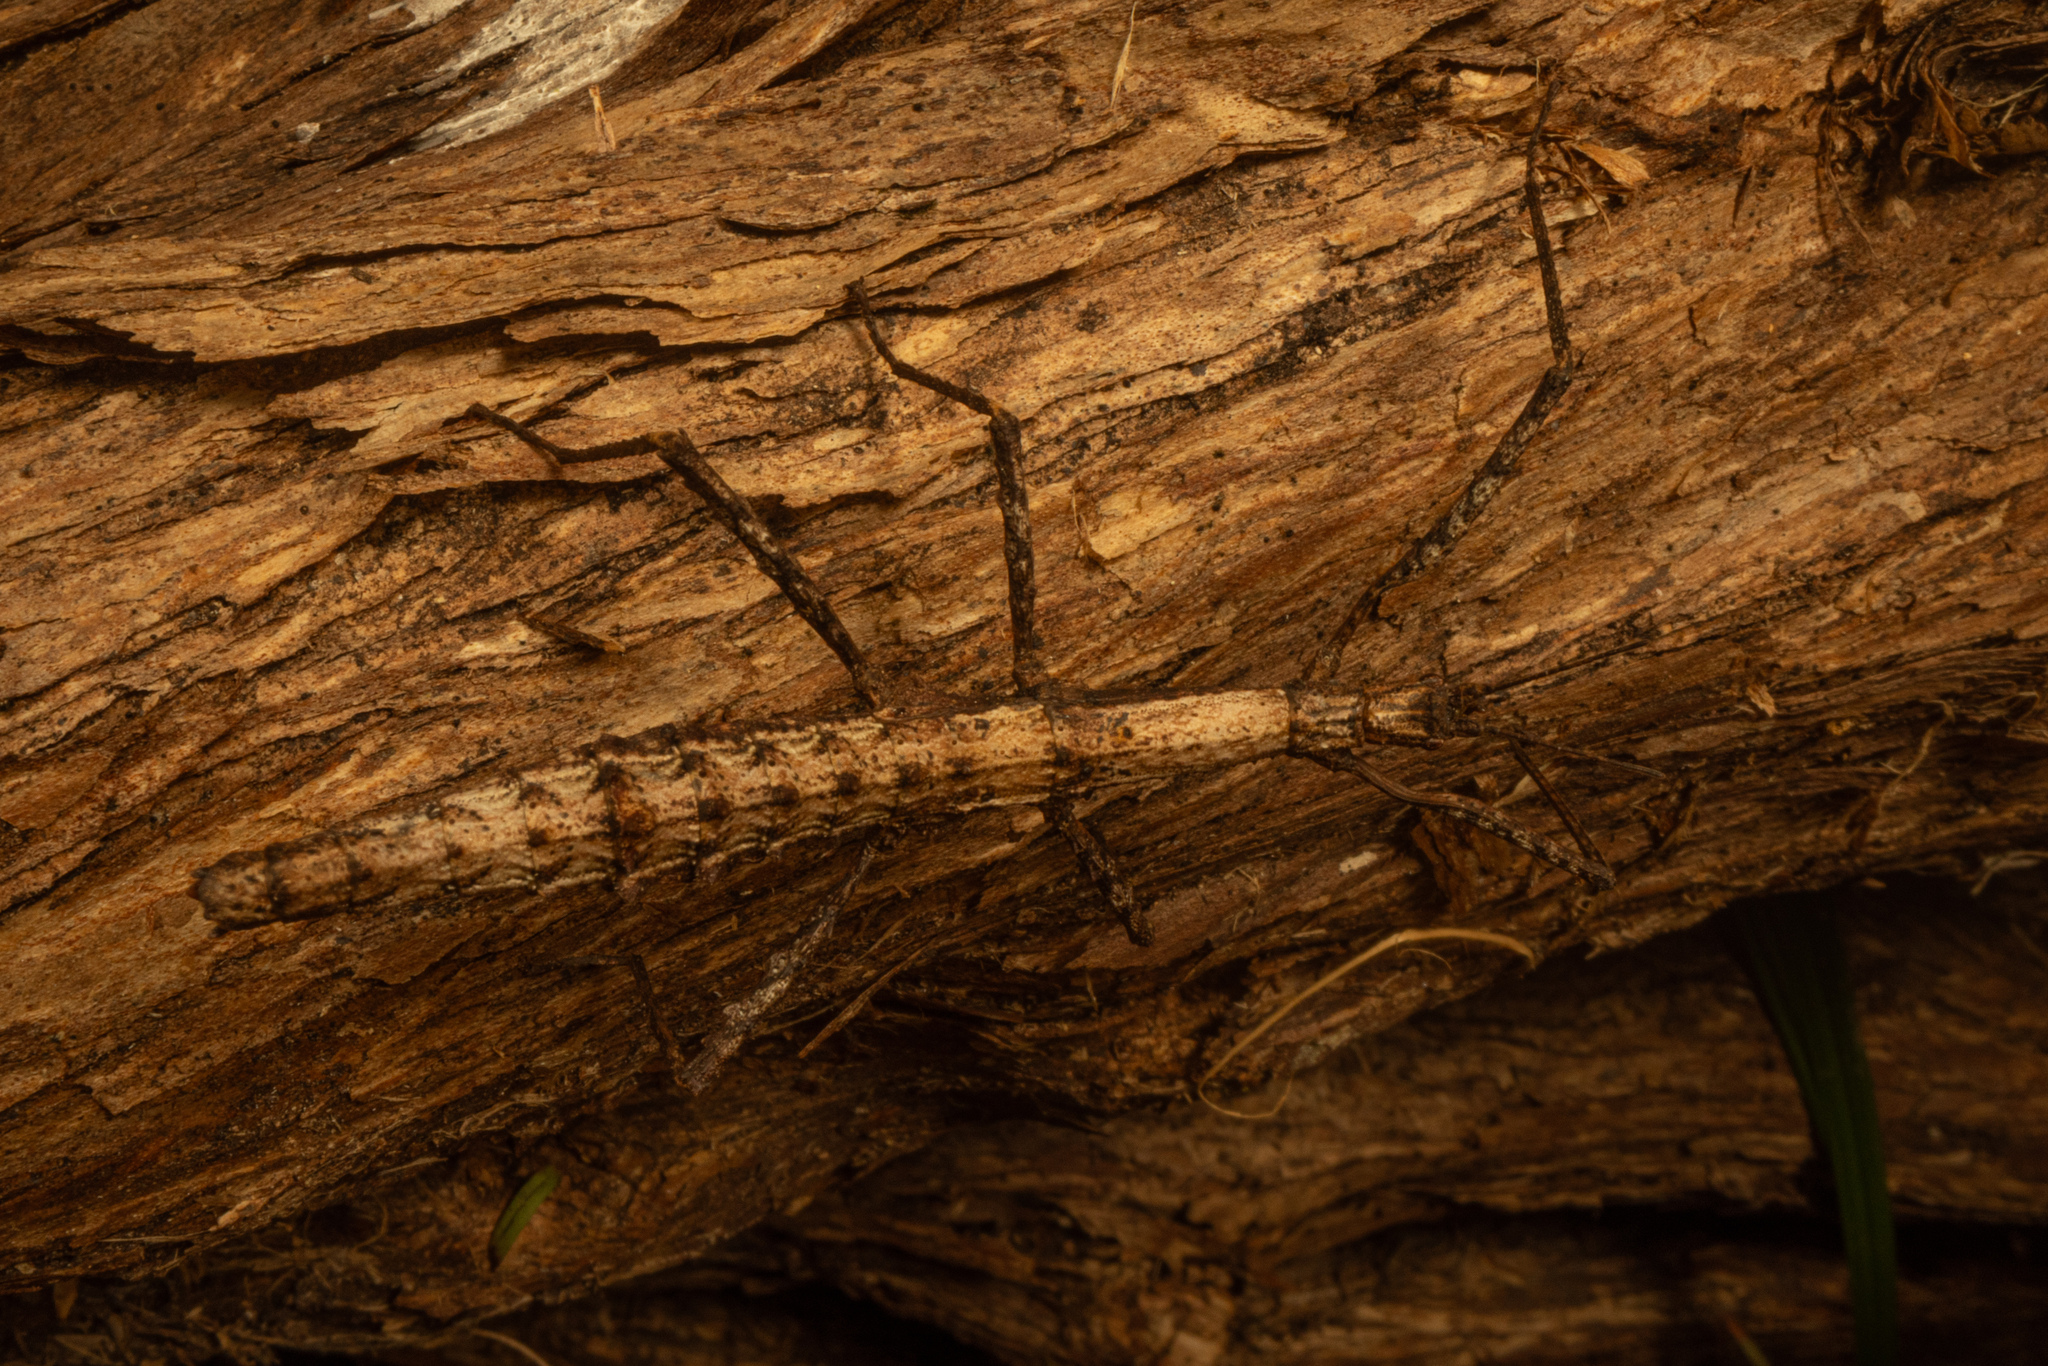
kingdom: Animalia
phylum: Arthropoda
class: Insecta
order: Phasmida
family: Phasmatidae
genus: Spinotectarchus
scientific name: Spinotectarchus acornutus
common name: The spiny ridge-backed stick insect
